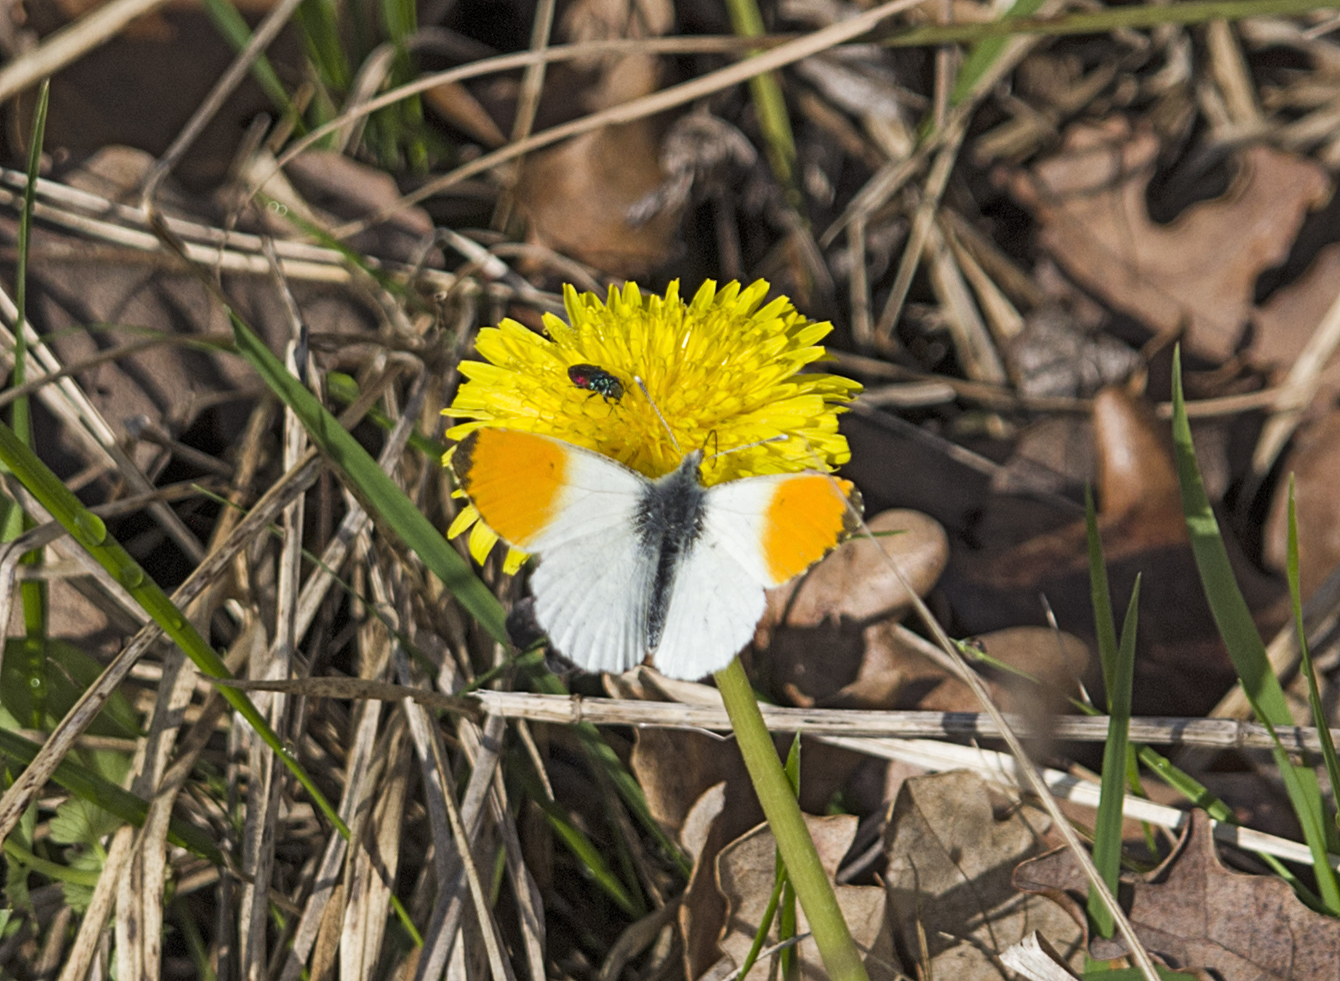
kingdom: Animalia
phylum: Arthropoda
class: Insecta
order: Lepidoptera
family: Pieridae
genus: Anthocharis
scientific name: Anthocharis cardamines
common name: Orange-tip
